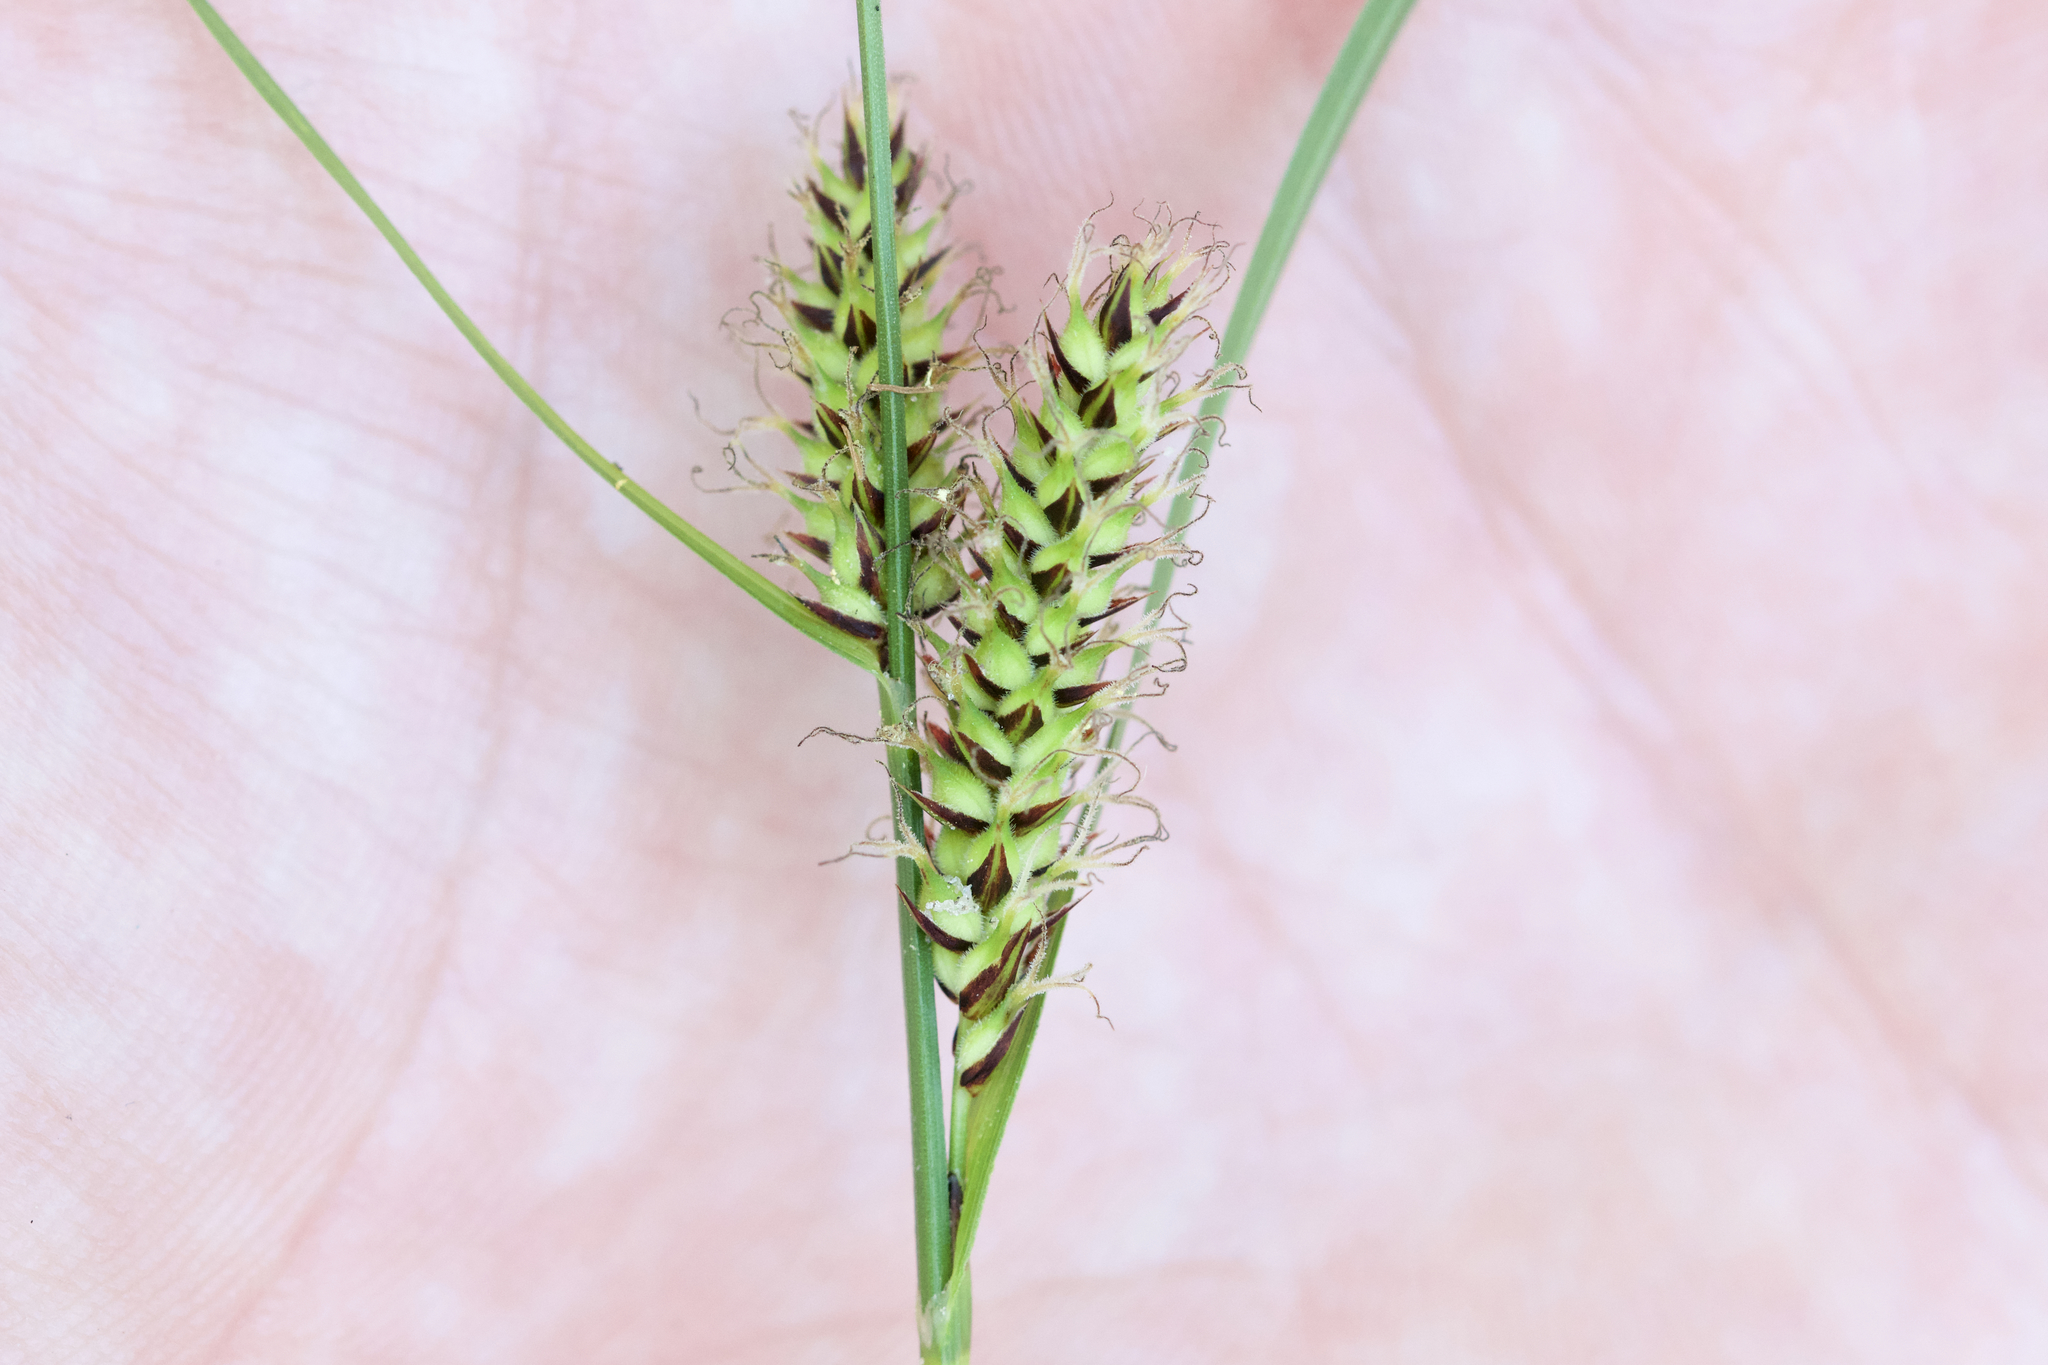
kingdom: Plantae
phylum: Tracheophyta
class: Liliopsida
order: Poales
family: Cyperaceae
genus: Carex
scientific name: Carex pellita
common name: Woolly sedge
